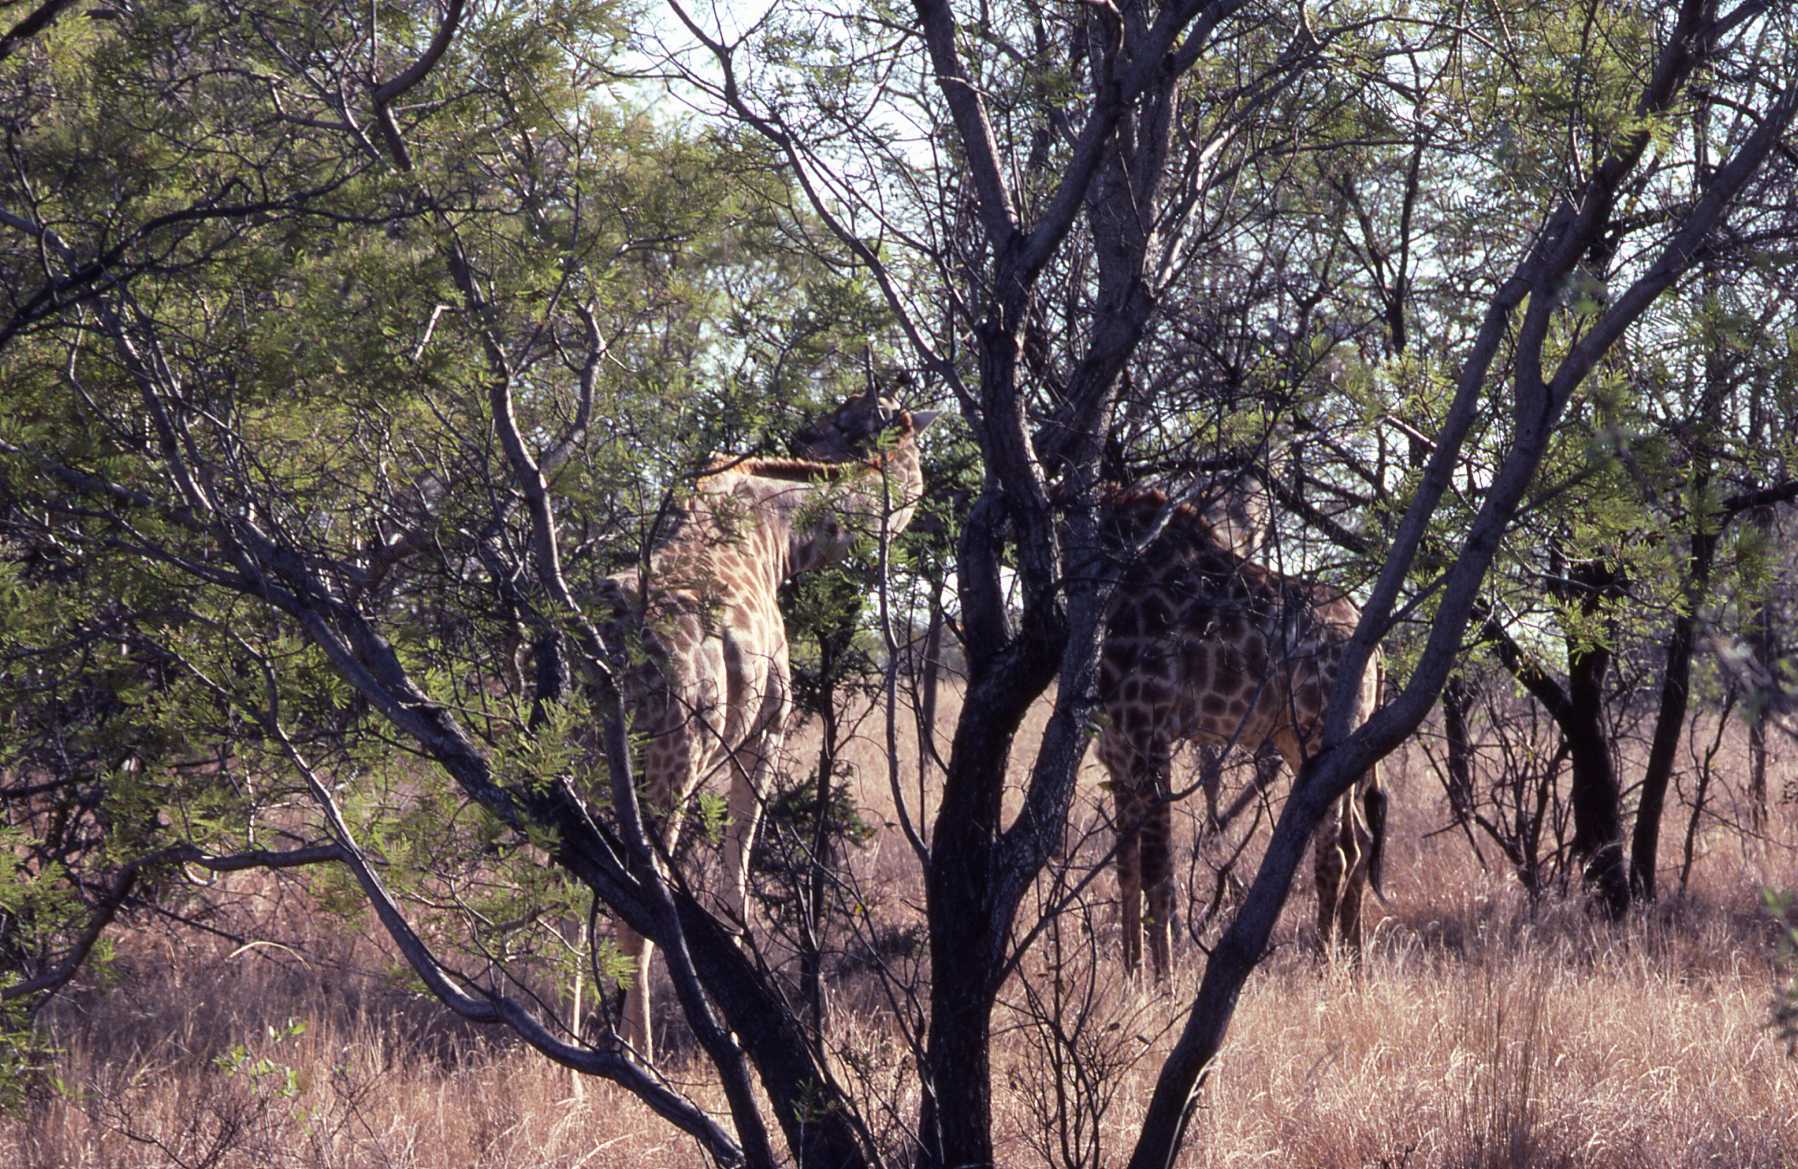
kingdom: Animalia
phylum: Chordata
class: Mammalia
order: Artiodactyla
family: Giraffidae
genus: Giraffa
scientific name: Giraffa giraffa
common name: Southern giraffe
